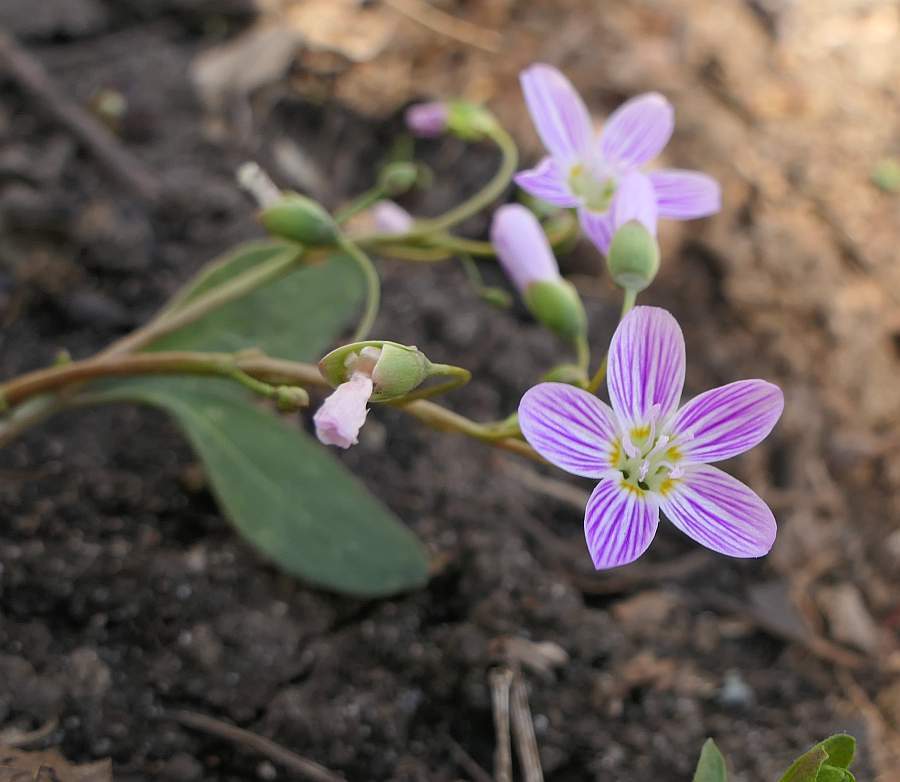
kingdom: Plantae
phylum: Tracheophyta
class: Magnoliopsida
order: Caryophyllales
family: Montiaceae
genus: Claytonia
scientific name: Claytonia caroliniana
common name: Carolina spring beauty
